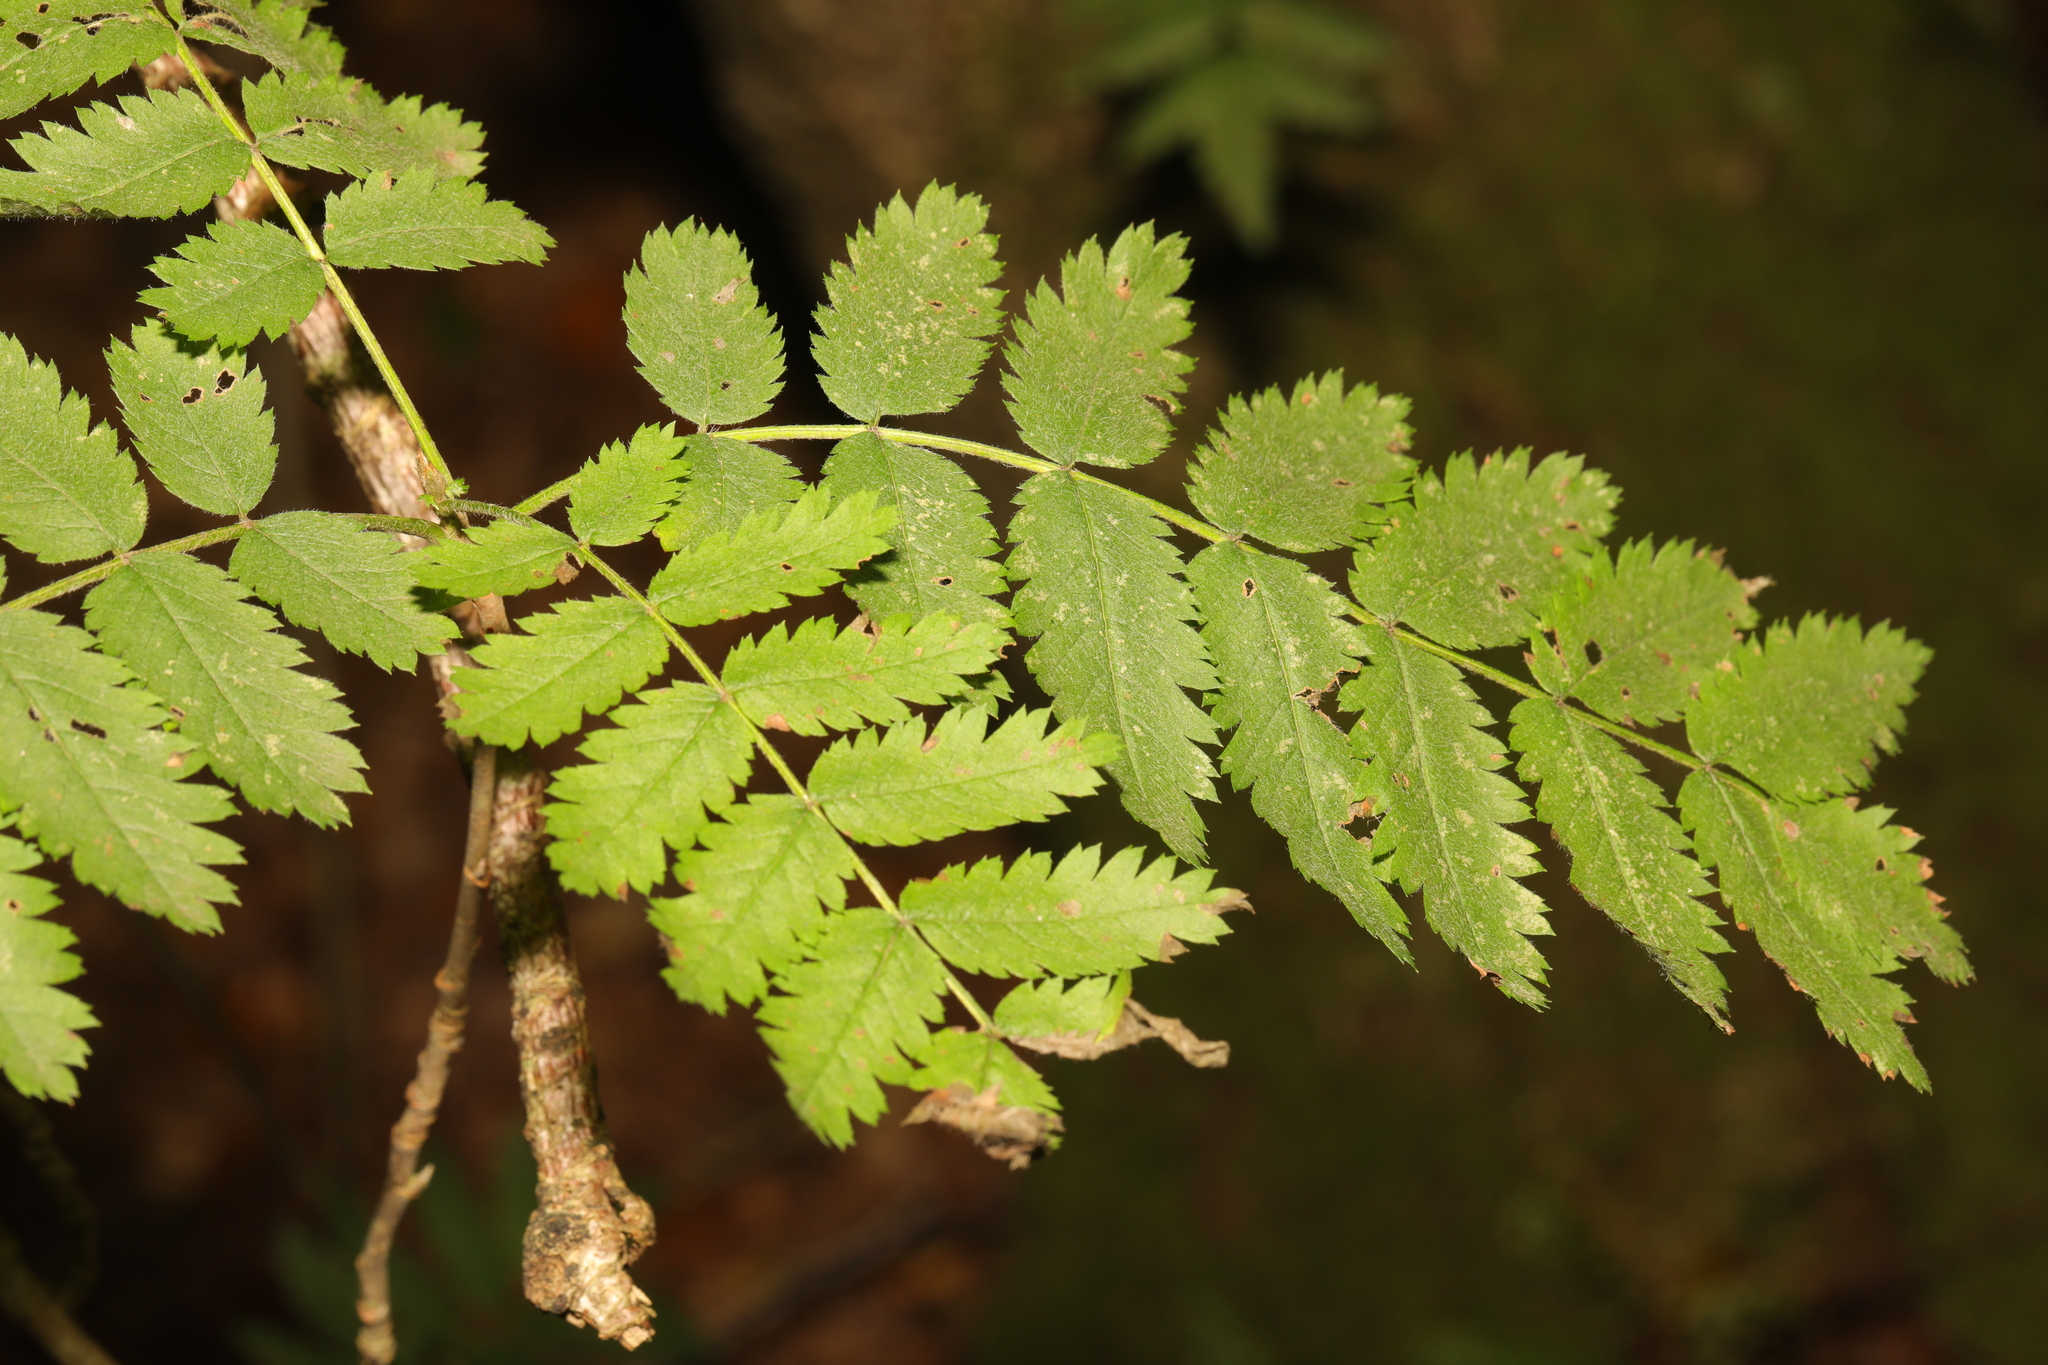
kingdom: Plantae
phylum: Tracheophyta
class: Magnoliopsida
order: Rosales
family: Rosaceae
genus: Sorbus
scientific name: Sorbus aucuparia
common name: Rowan
